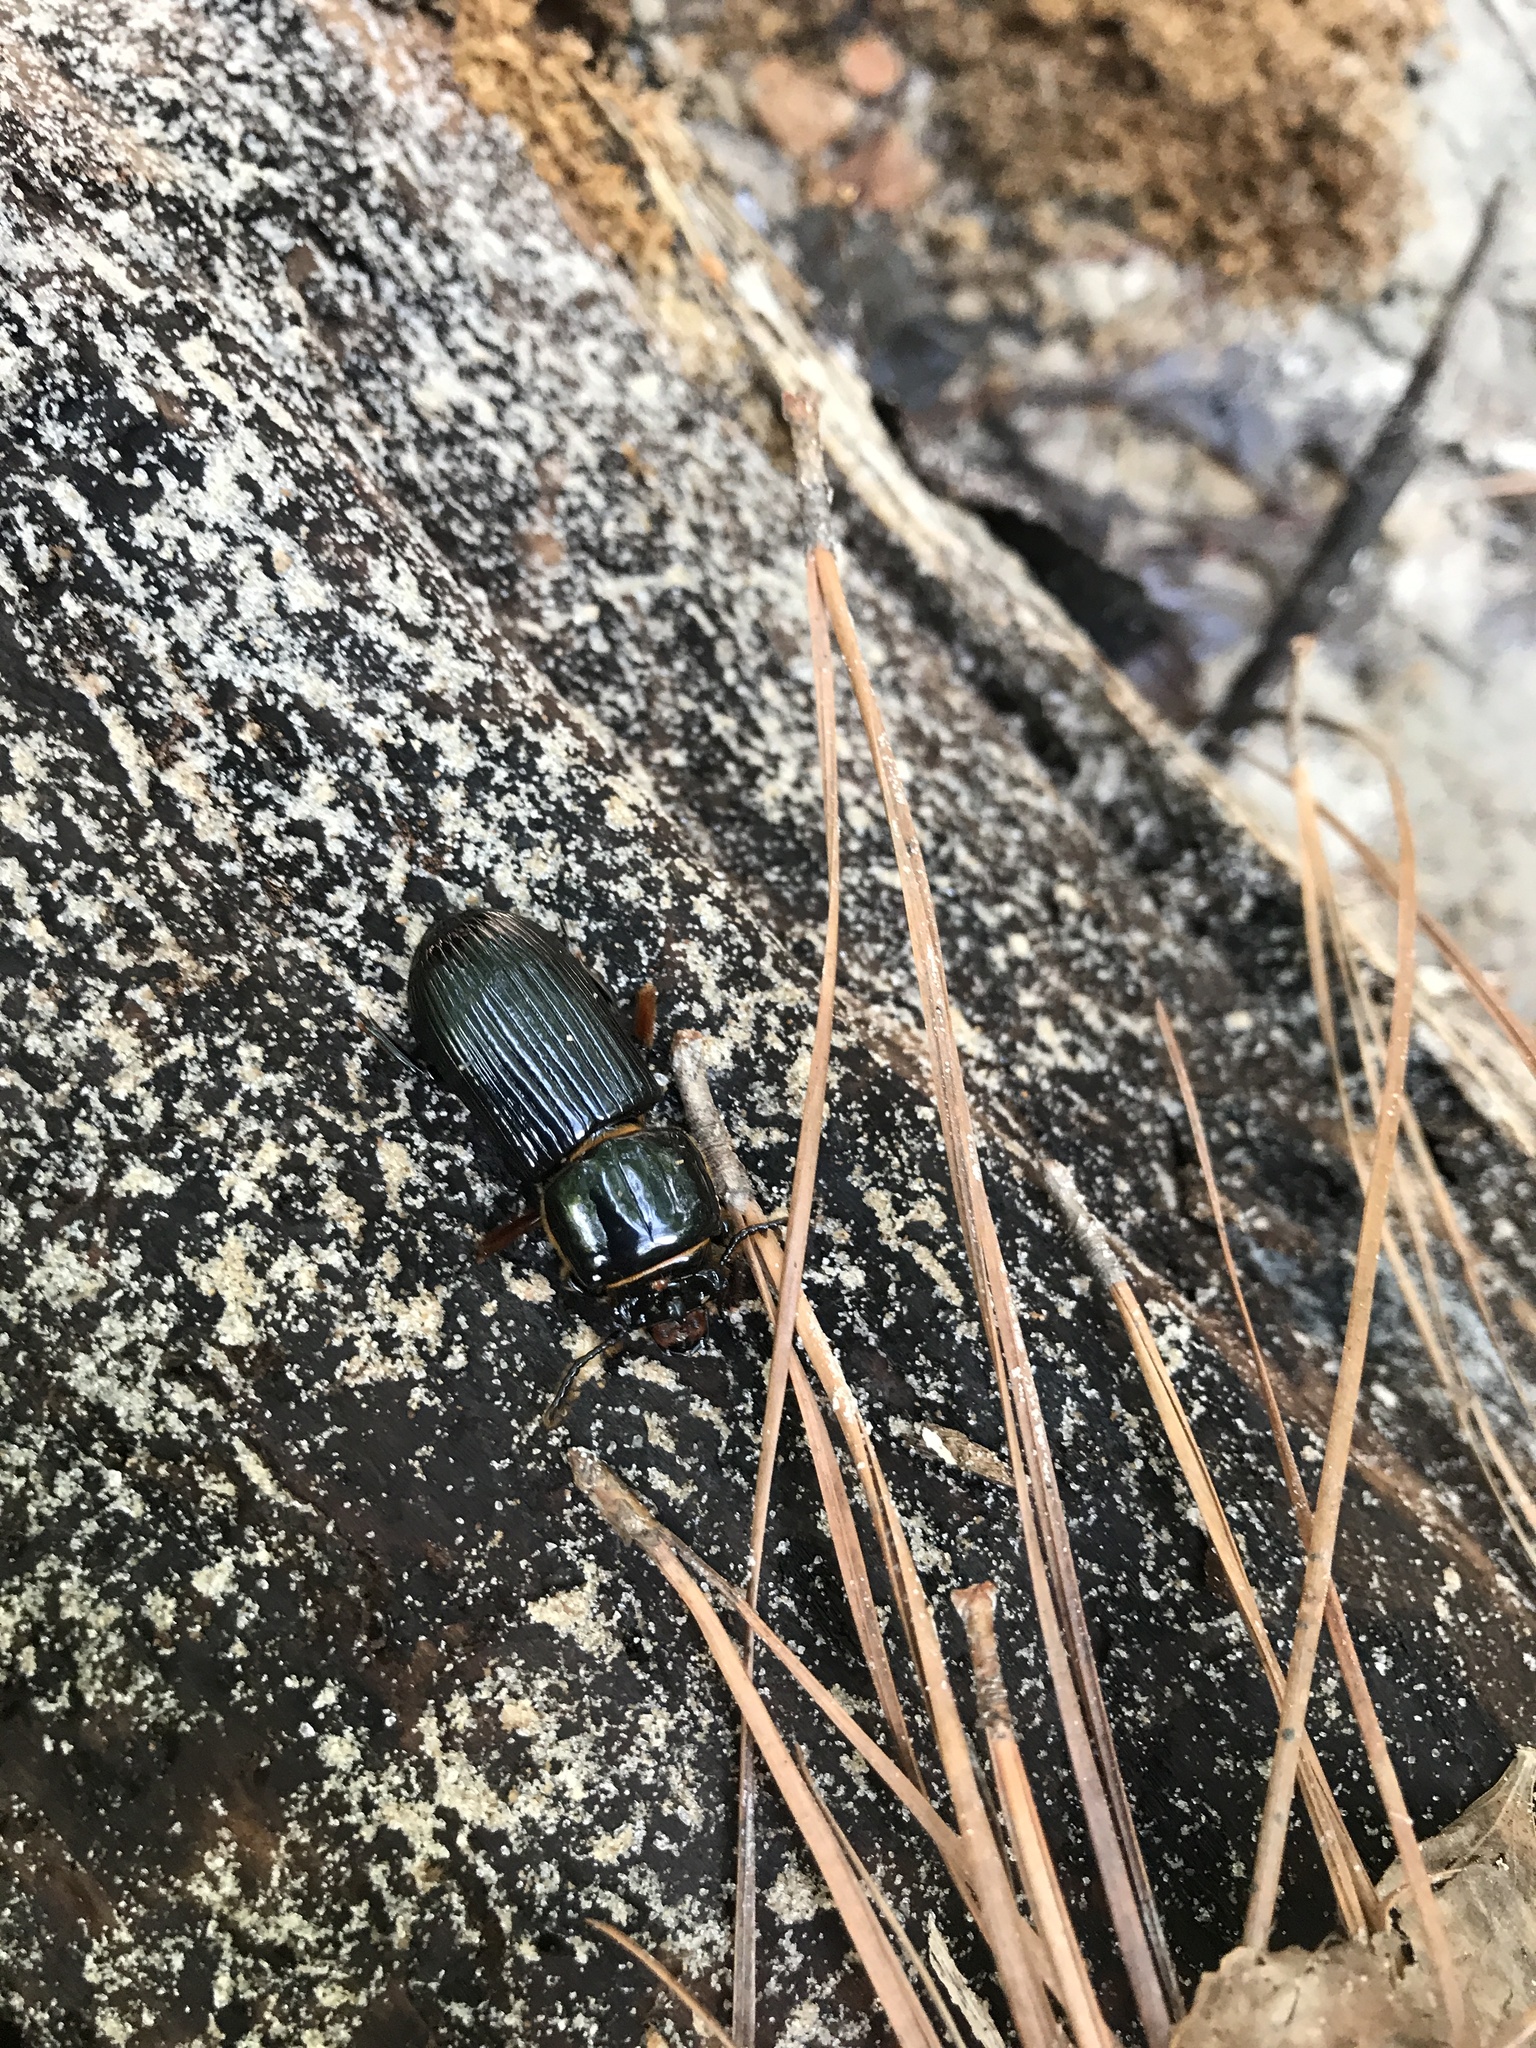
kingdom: Animalia
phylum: Arthropoda
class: Insecta
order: Coleoptera
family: Passalidae
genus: Odontotaenius
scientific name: Odontotaenius disjunctus
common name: Patent leather beetle
